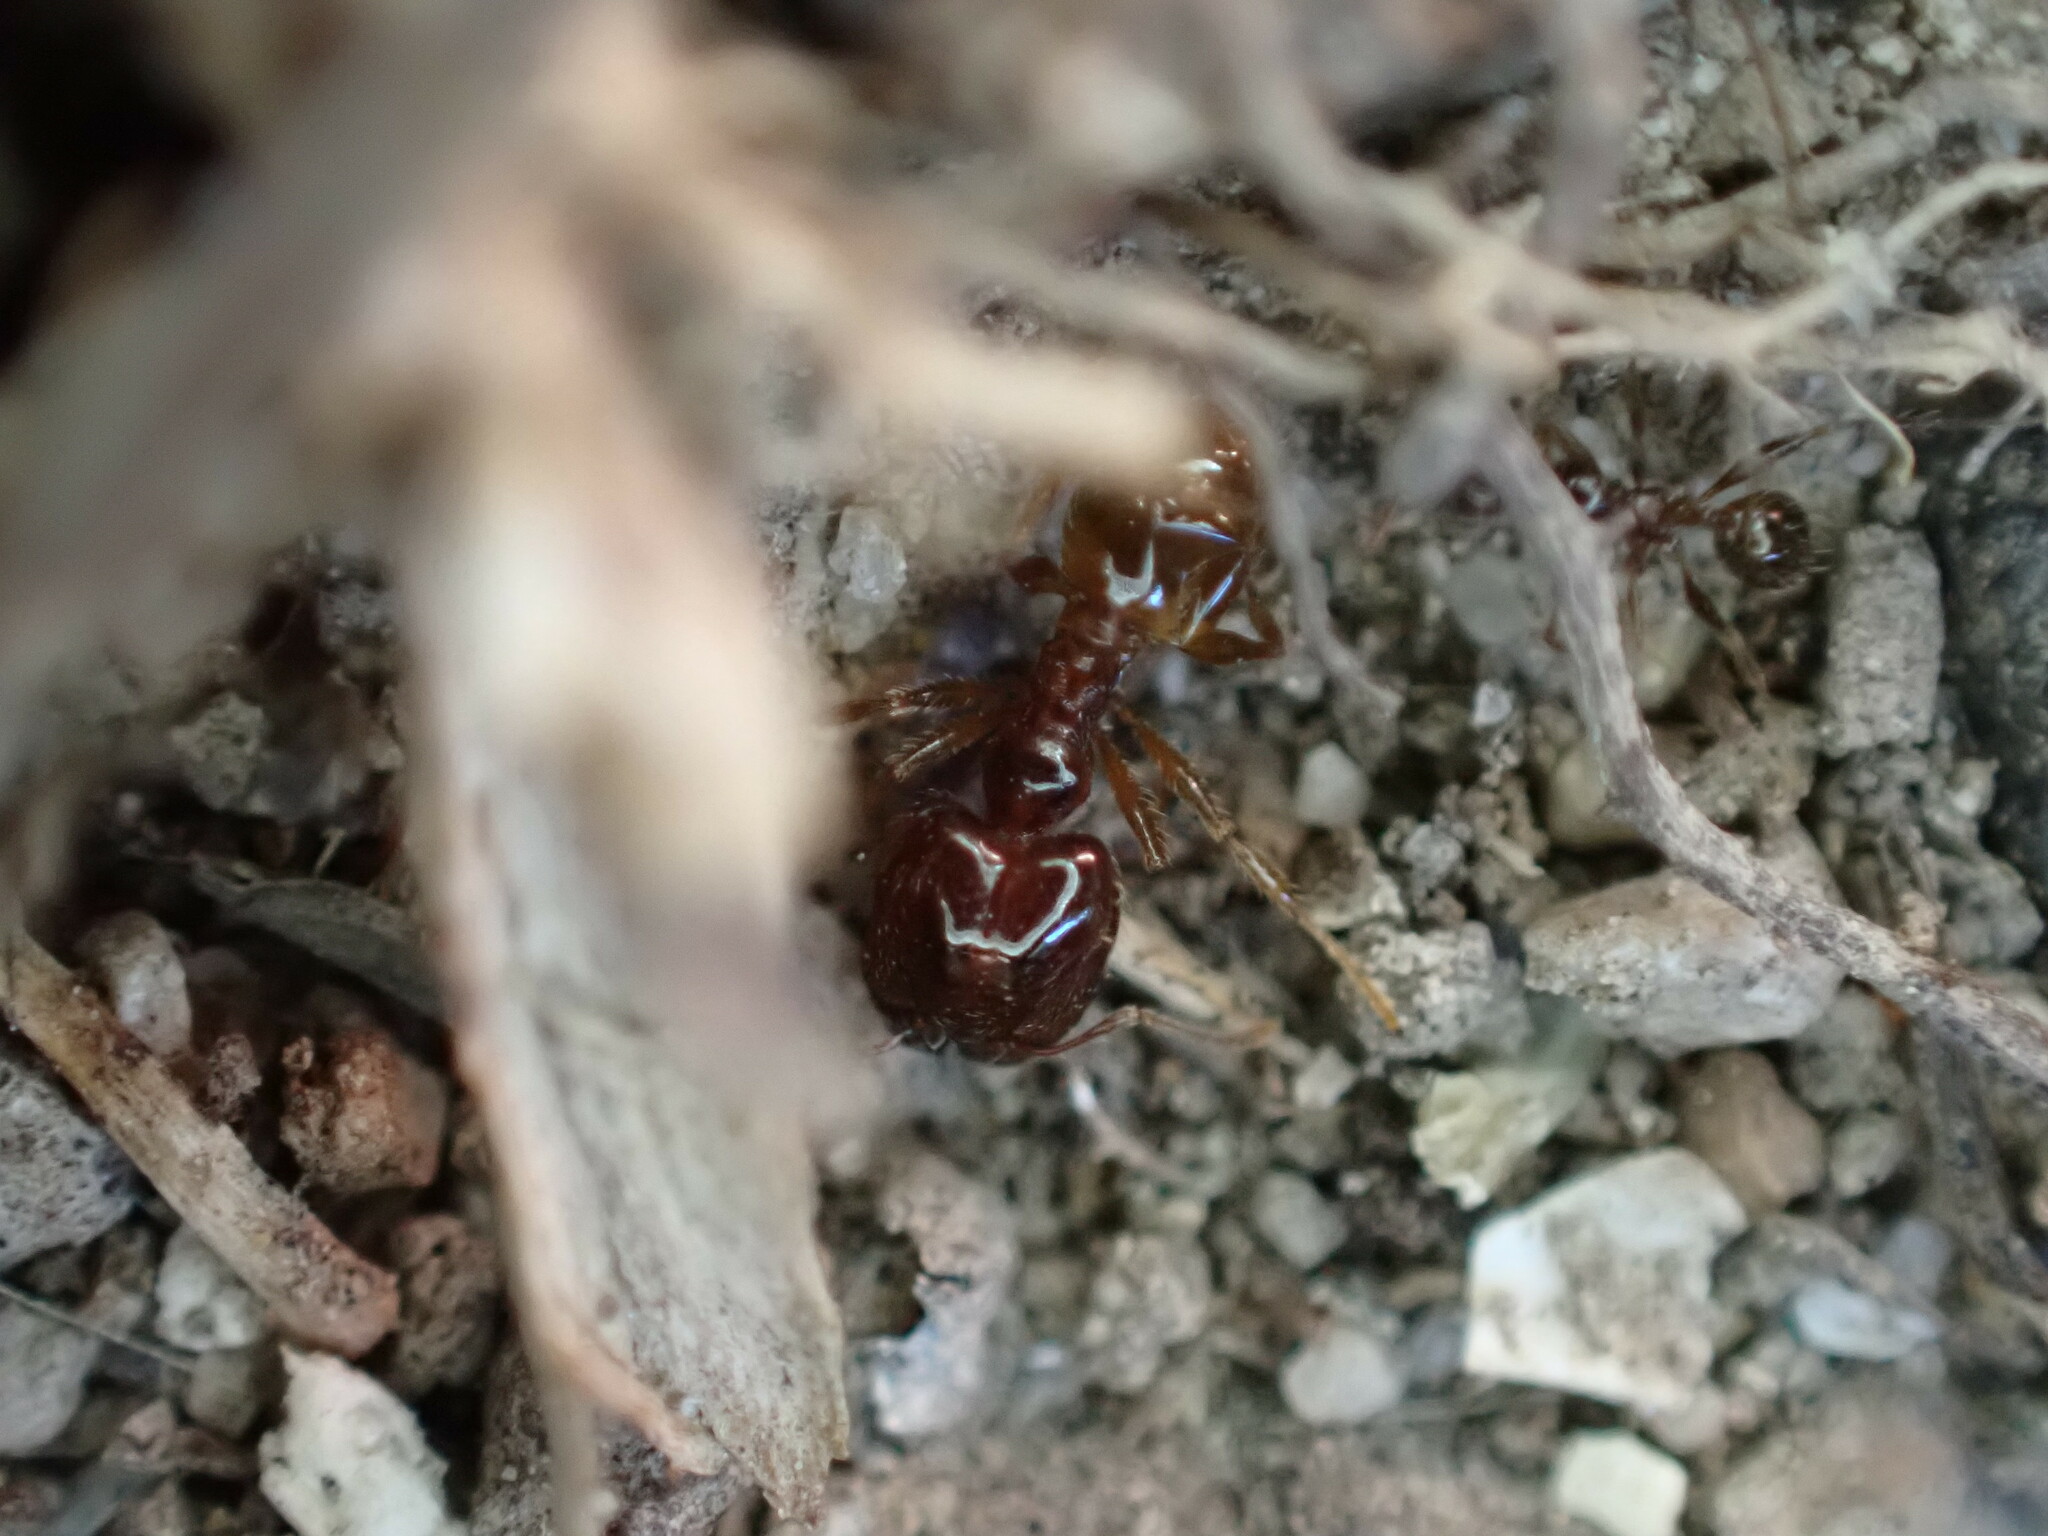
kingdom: Animalia
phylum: Arthropoda
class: Insecta
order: Hymenoptera
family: Formicidae
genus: Pheidole
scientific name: Pheidole pallidula
